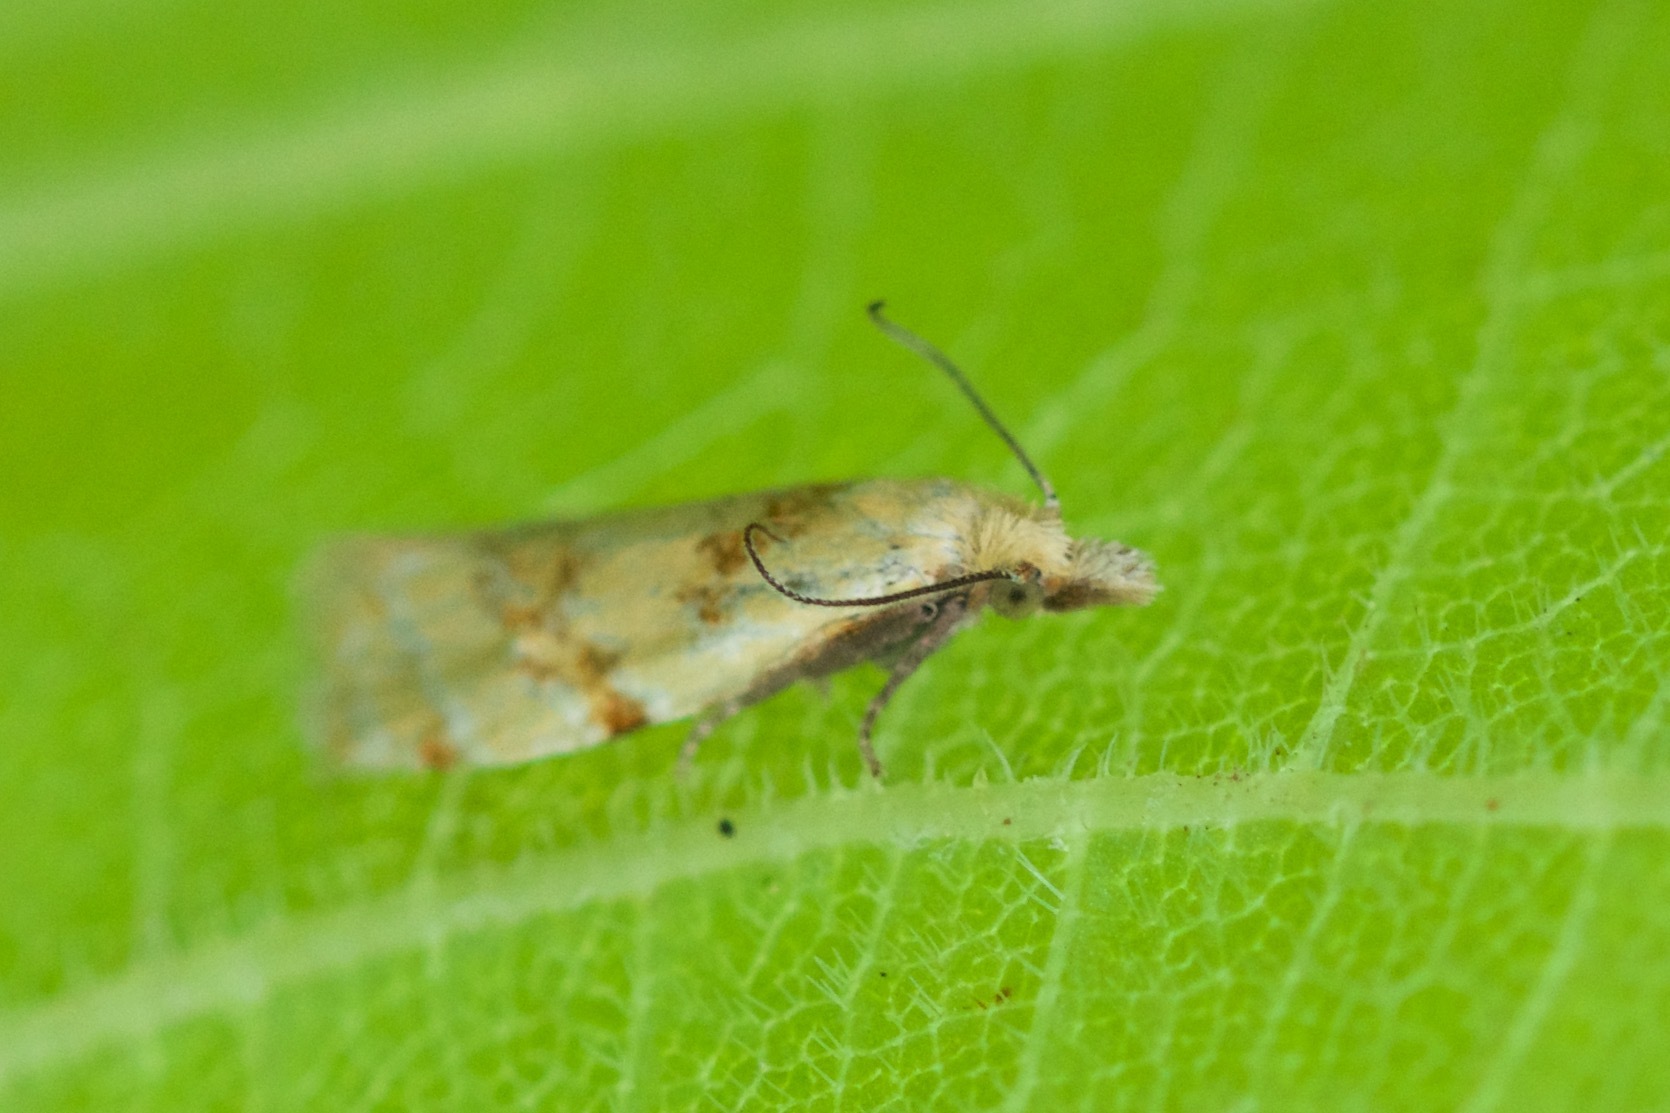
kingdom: Animalia
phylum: Arthropoda
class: Insecta
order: Lepidoptera
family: Tortricidae
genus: Phtheochroa
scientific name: Phtheochroa vitellinana
